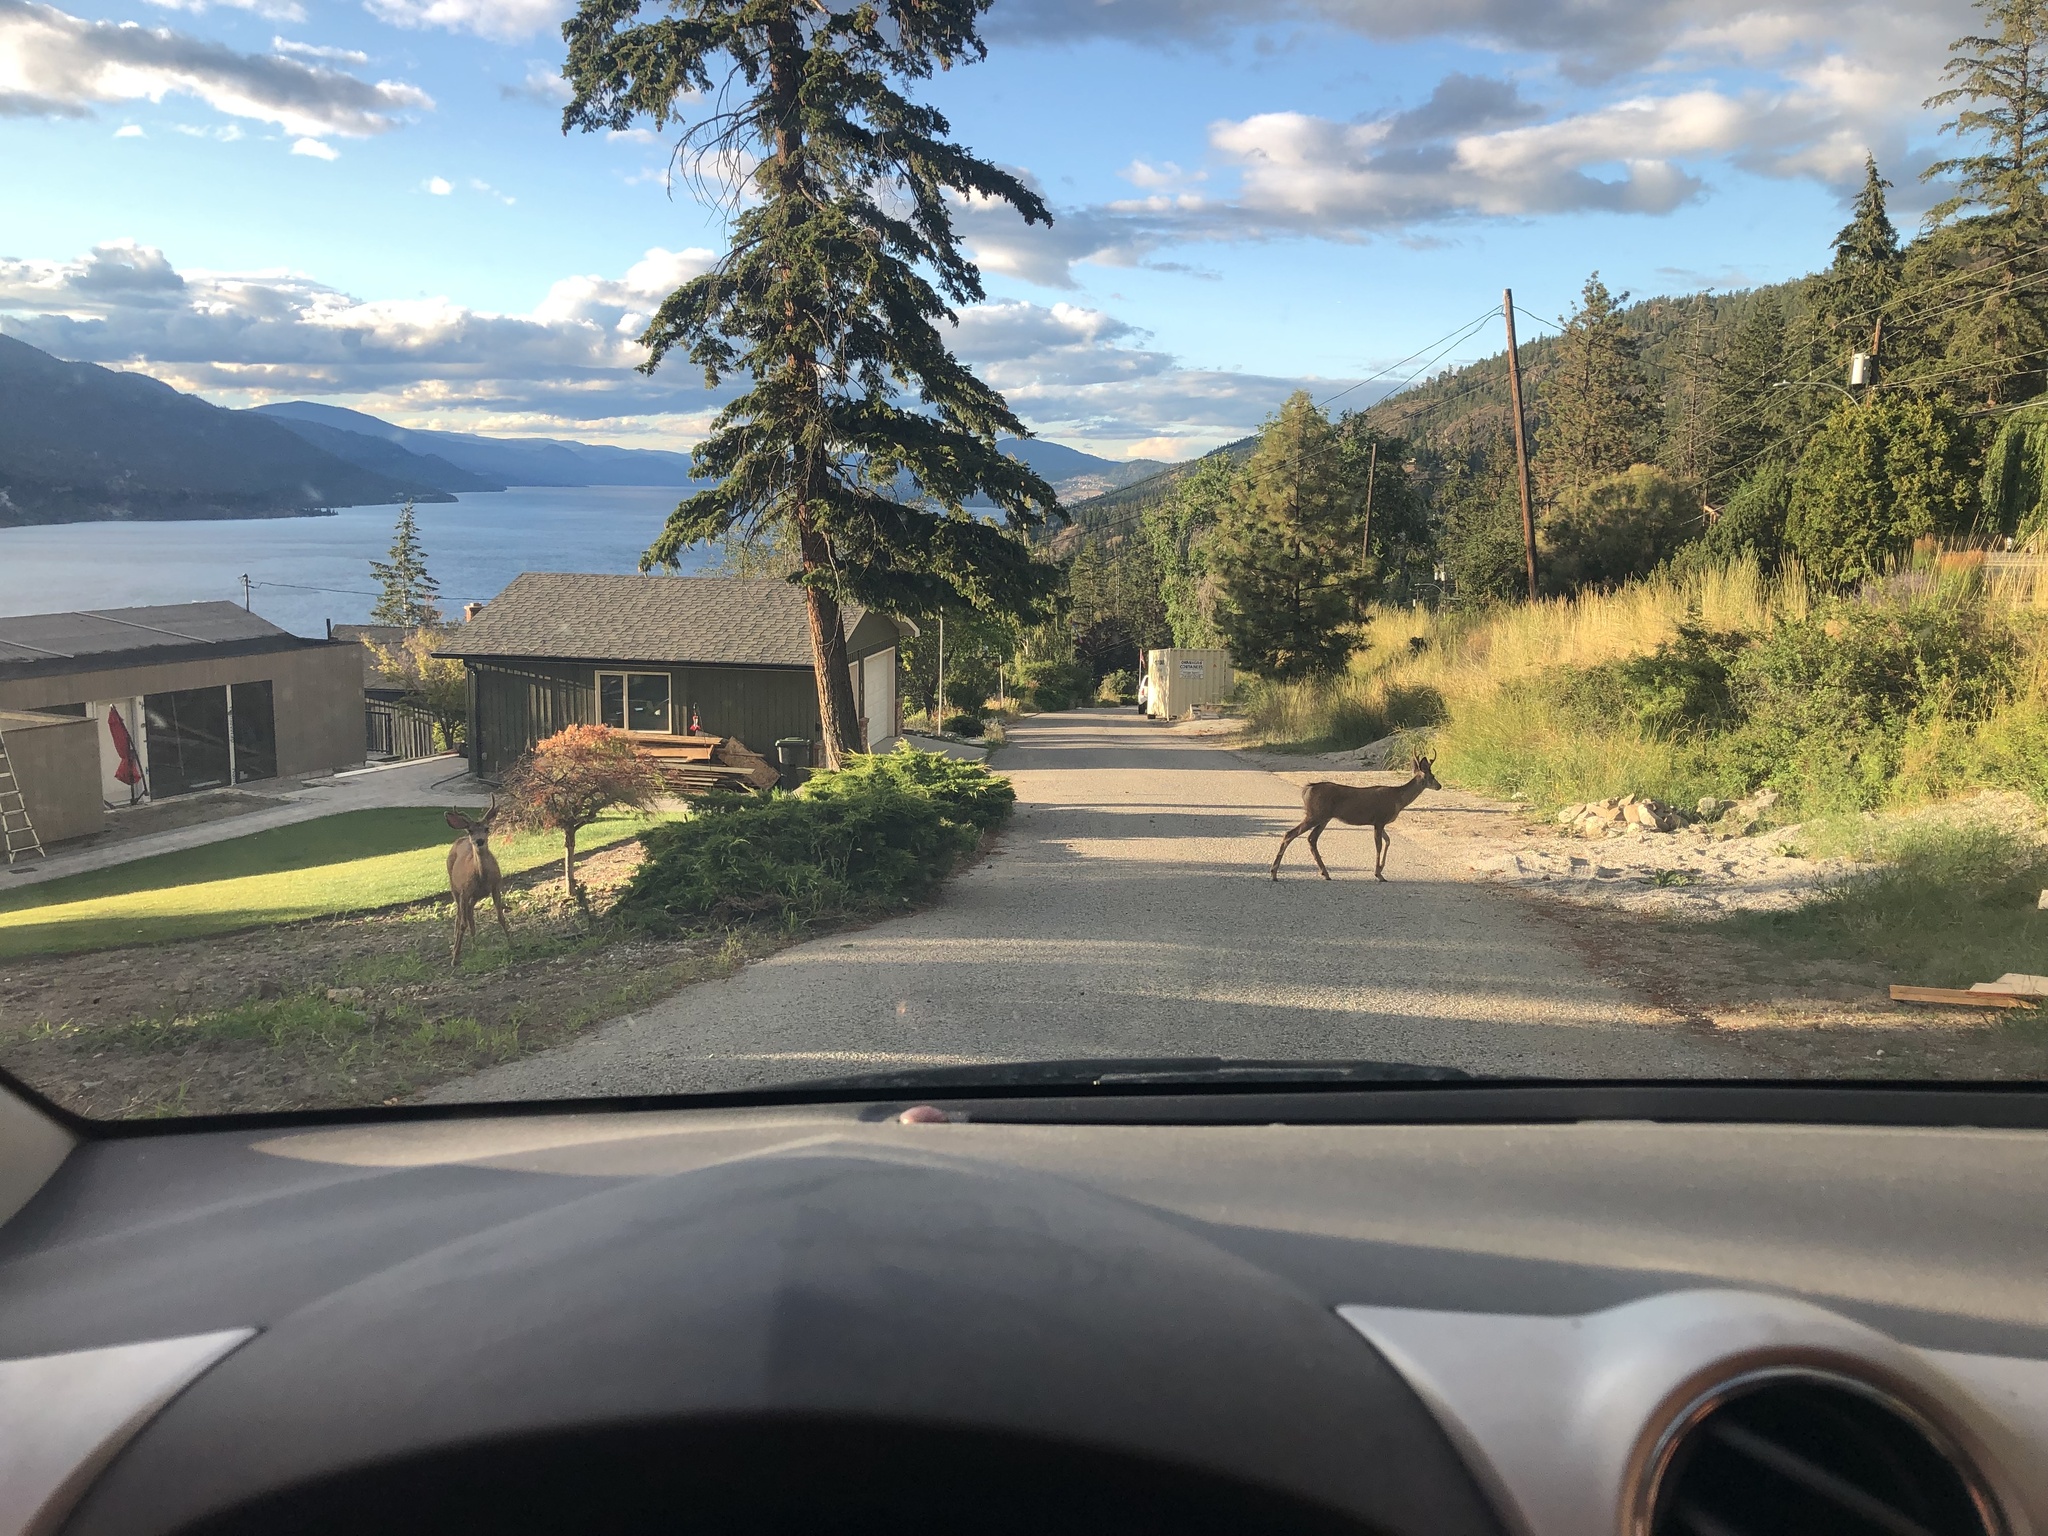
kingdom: Animalia
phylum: Chordata
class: Mammalia
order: Artiodactyla
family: Cervidae
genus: Odocoileus
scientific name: Odocoileus hemionus
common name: Mule deer
